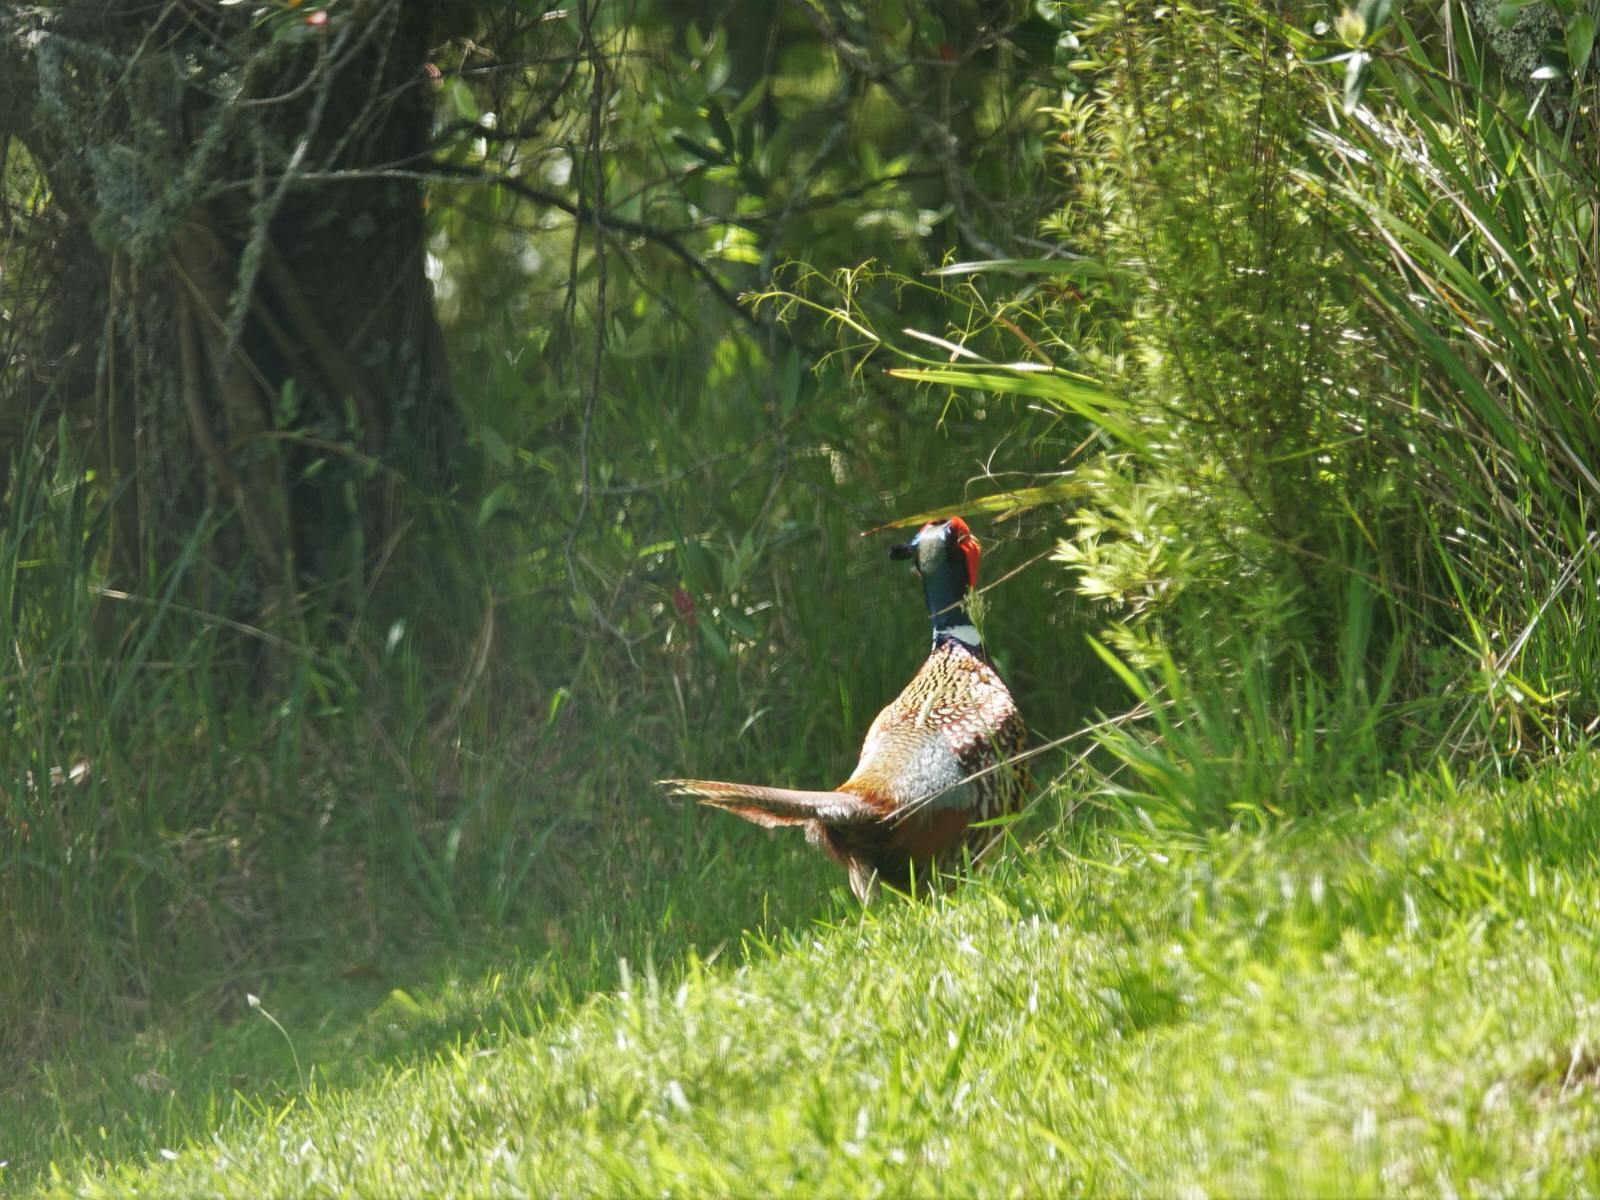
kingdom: Animalia
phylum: Chordata
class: Aves
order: Galliformes
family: Phasianidae
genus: Phasianus
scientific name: Phasianus colchicus
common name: Common pheasant
